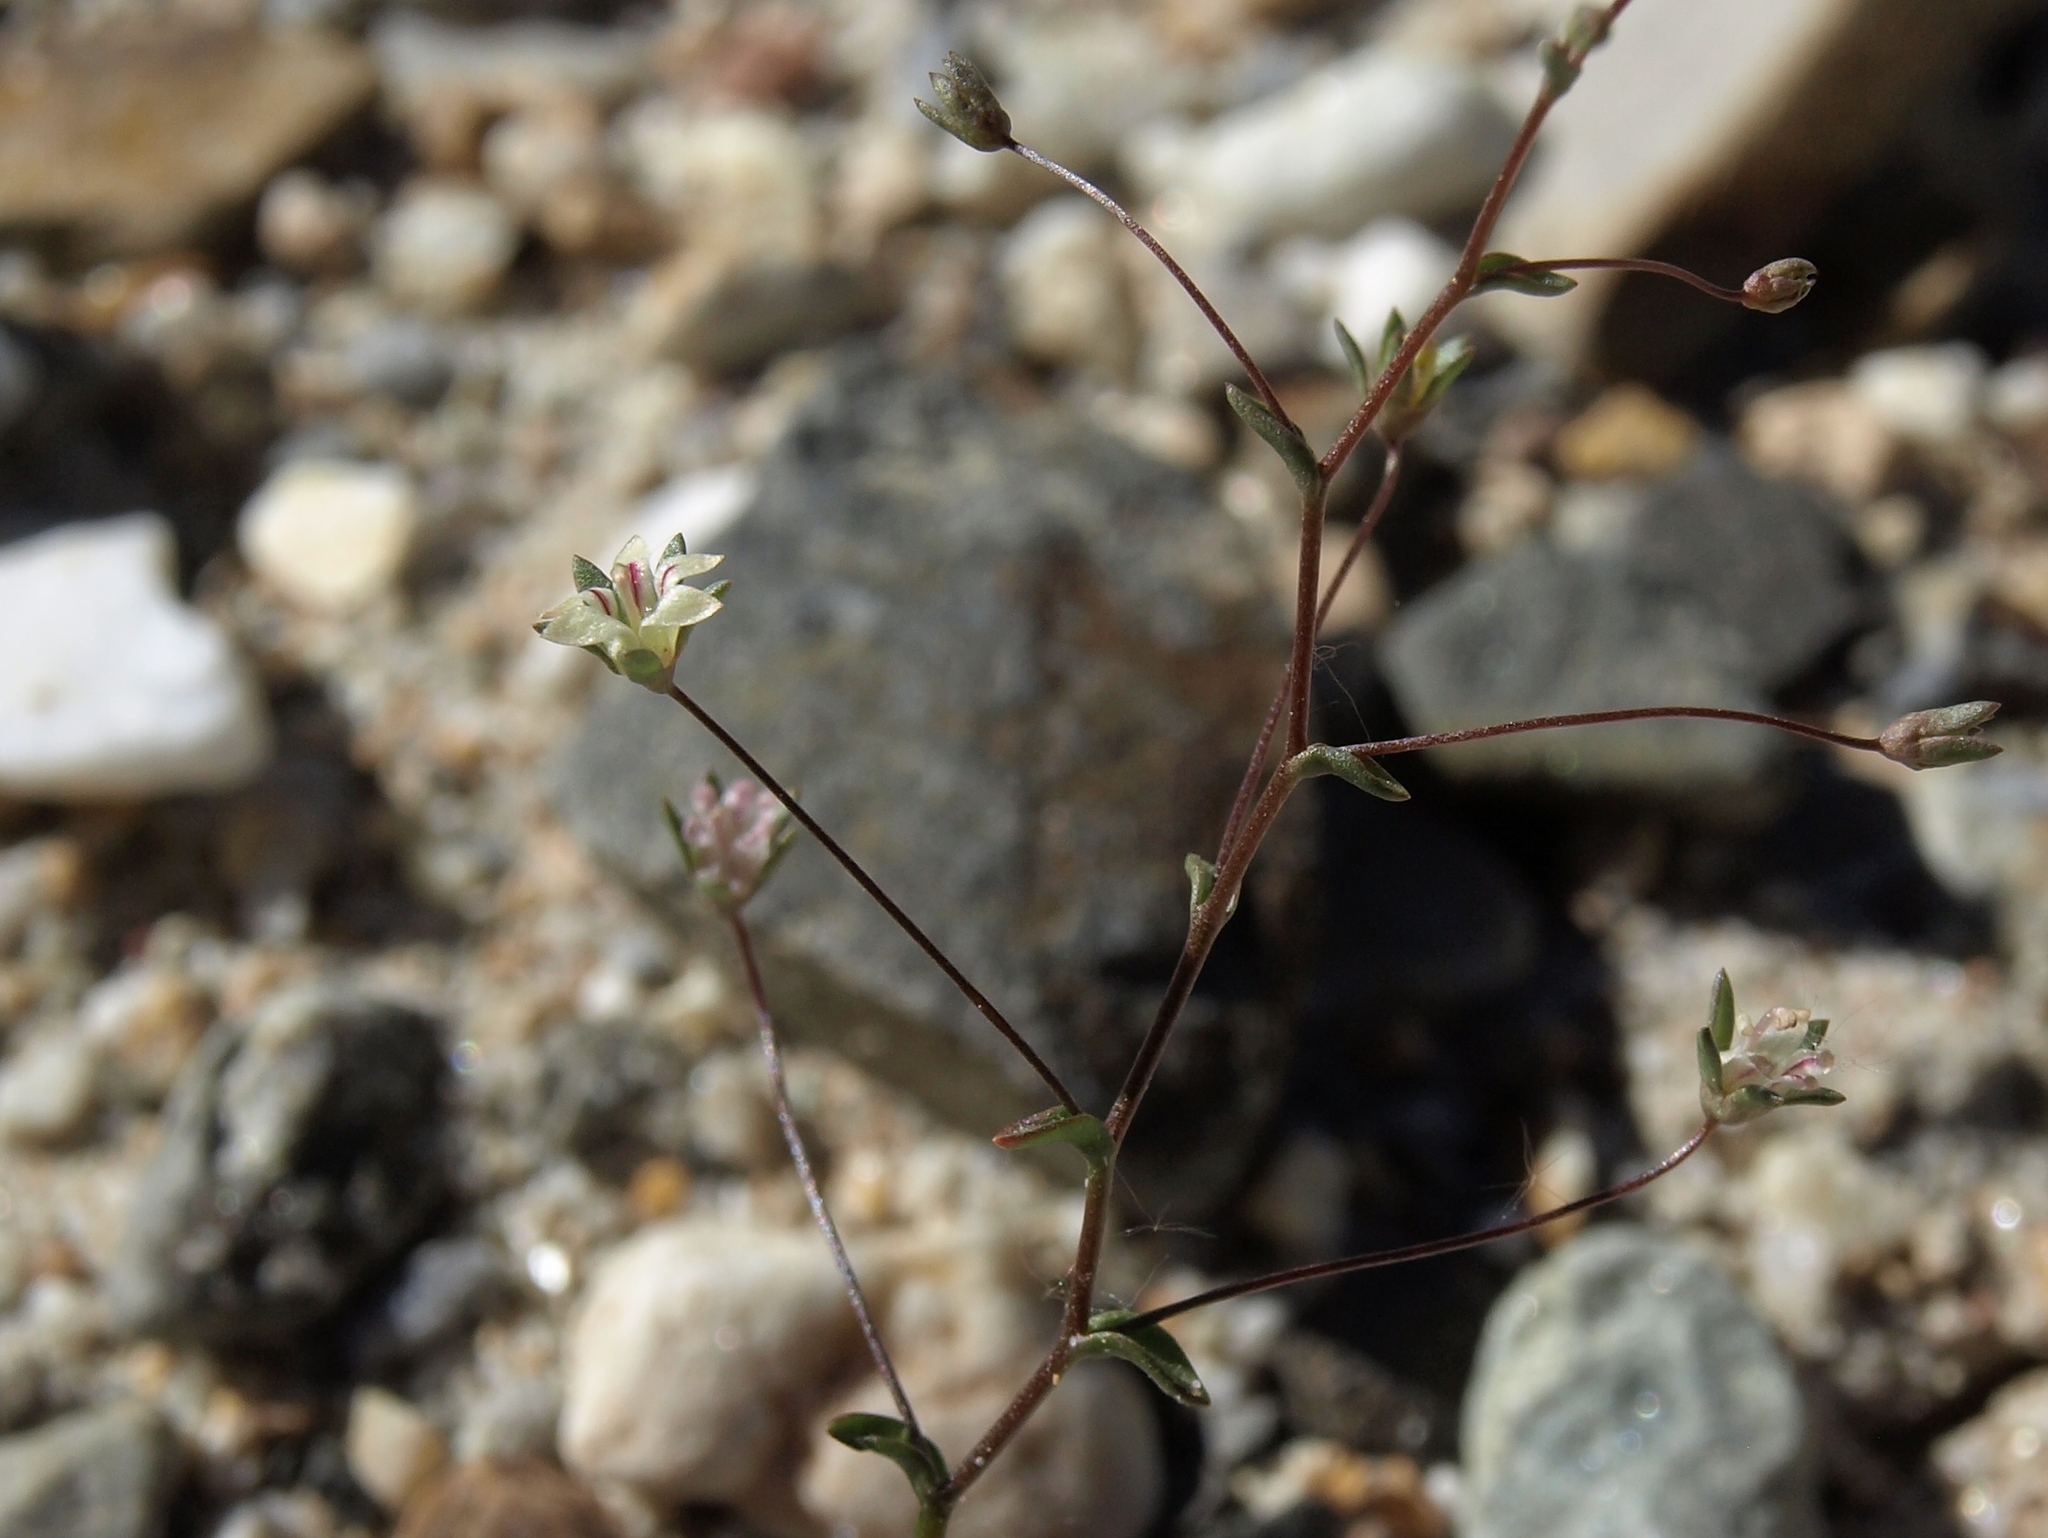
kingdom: Plantae
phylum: Tracheophyta
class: Magnoliopsida
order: Asterales
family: Campanulaceae
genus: Nemacladus
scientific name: Nemacladus inyoensis
